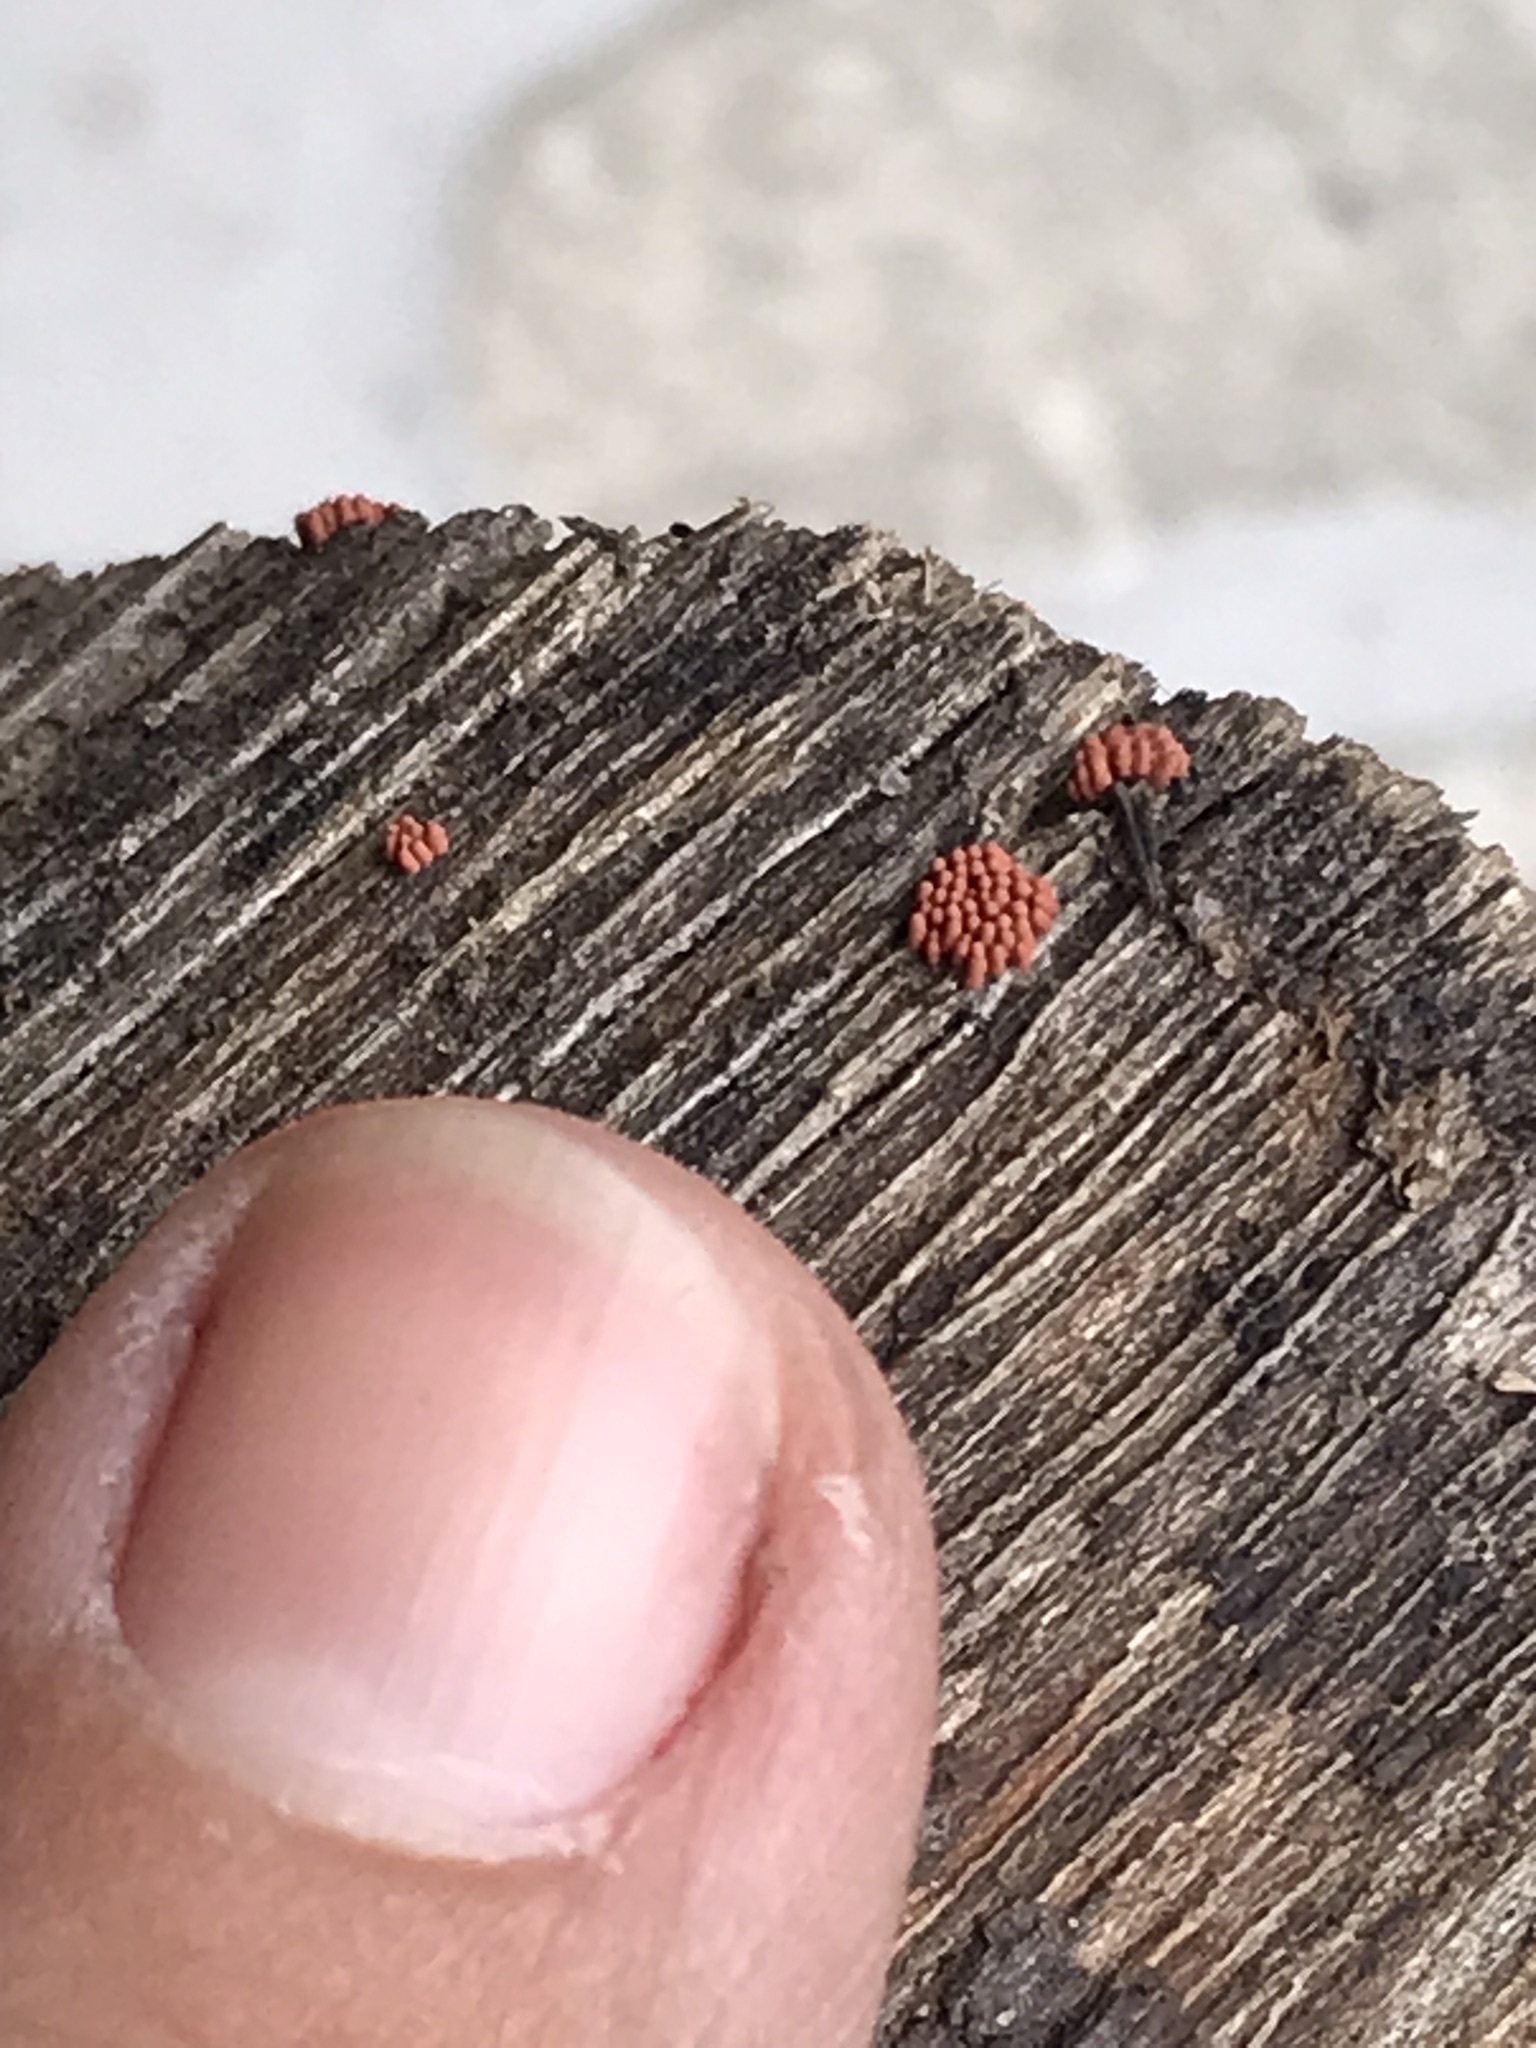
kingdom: Protozoa
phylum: Mycetozoa
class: Myxomycetes
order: Trichiales
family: Arcyriaceae
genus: Arcyria
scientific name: Arcyria denudata
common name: Carnival candy slime mold
